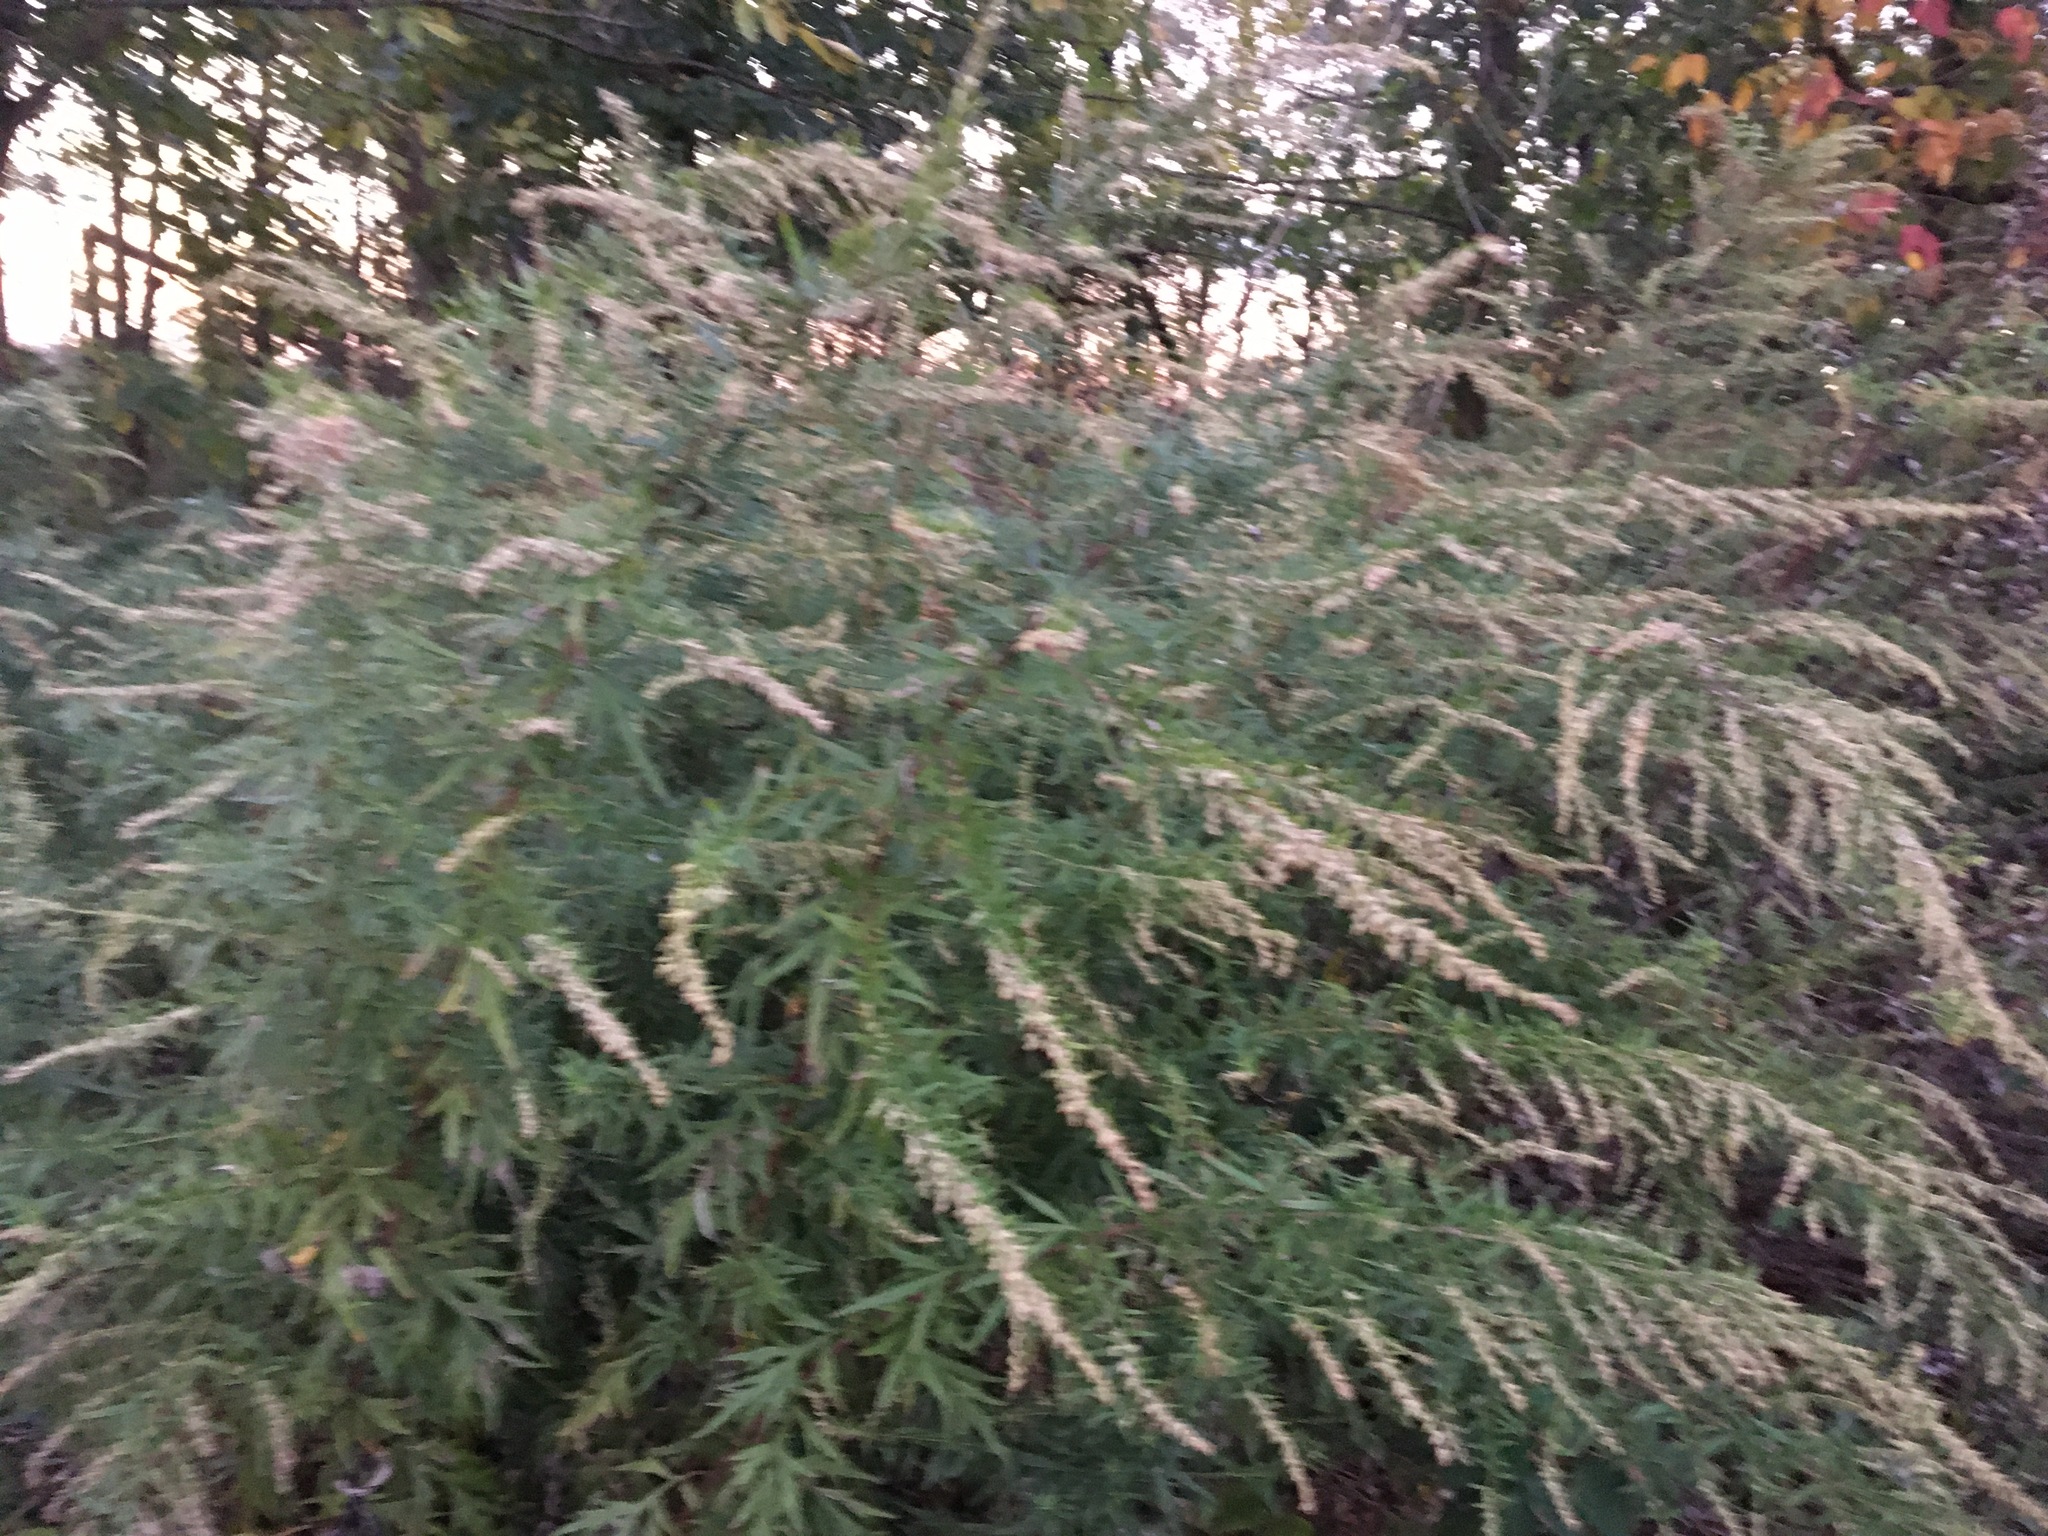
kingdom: Plantae
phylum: Tracheophyta
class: Magnoliopsida
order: Asterales
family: Asteraceae
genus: Artemisia
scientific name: Artemisia vulgaris
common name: Mugwort
